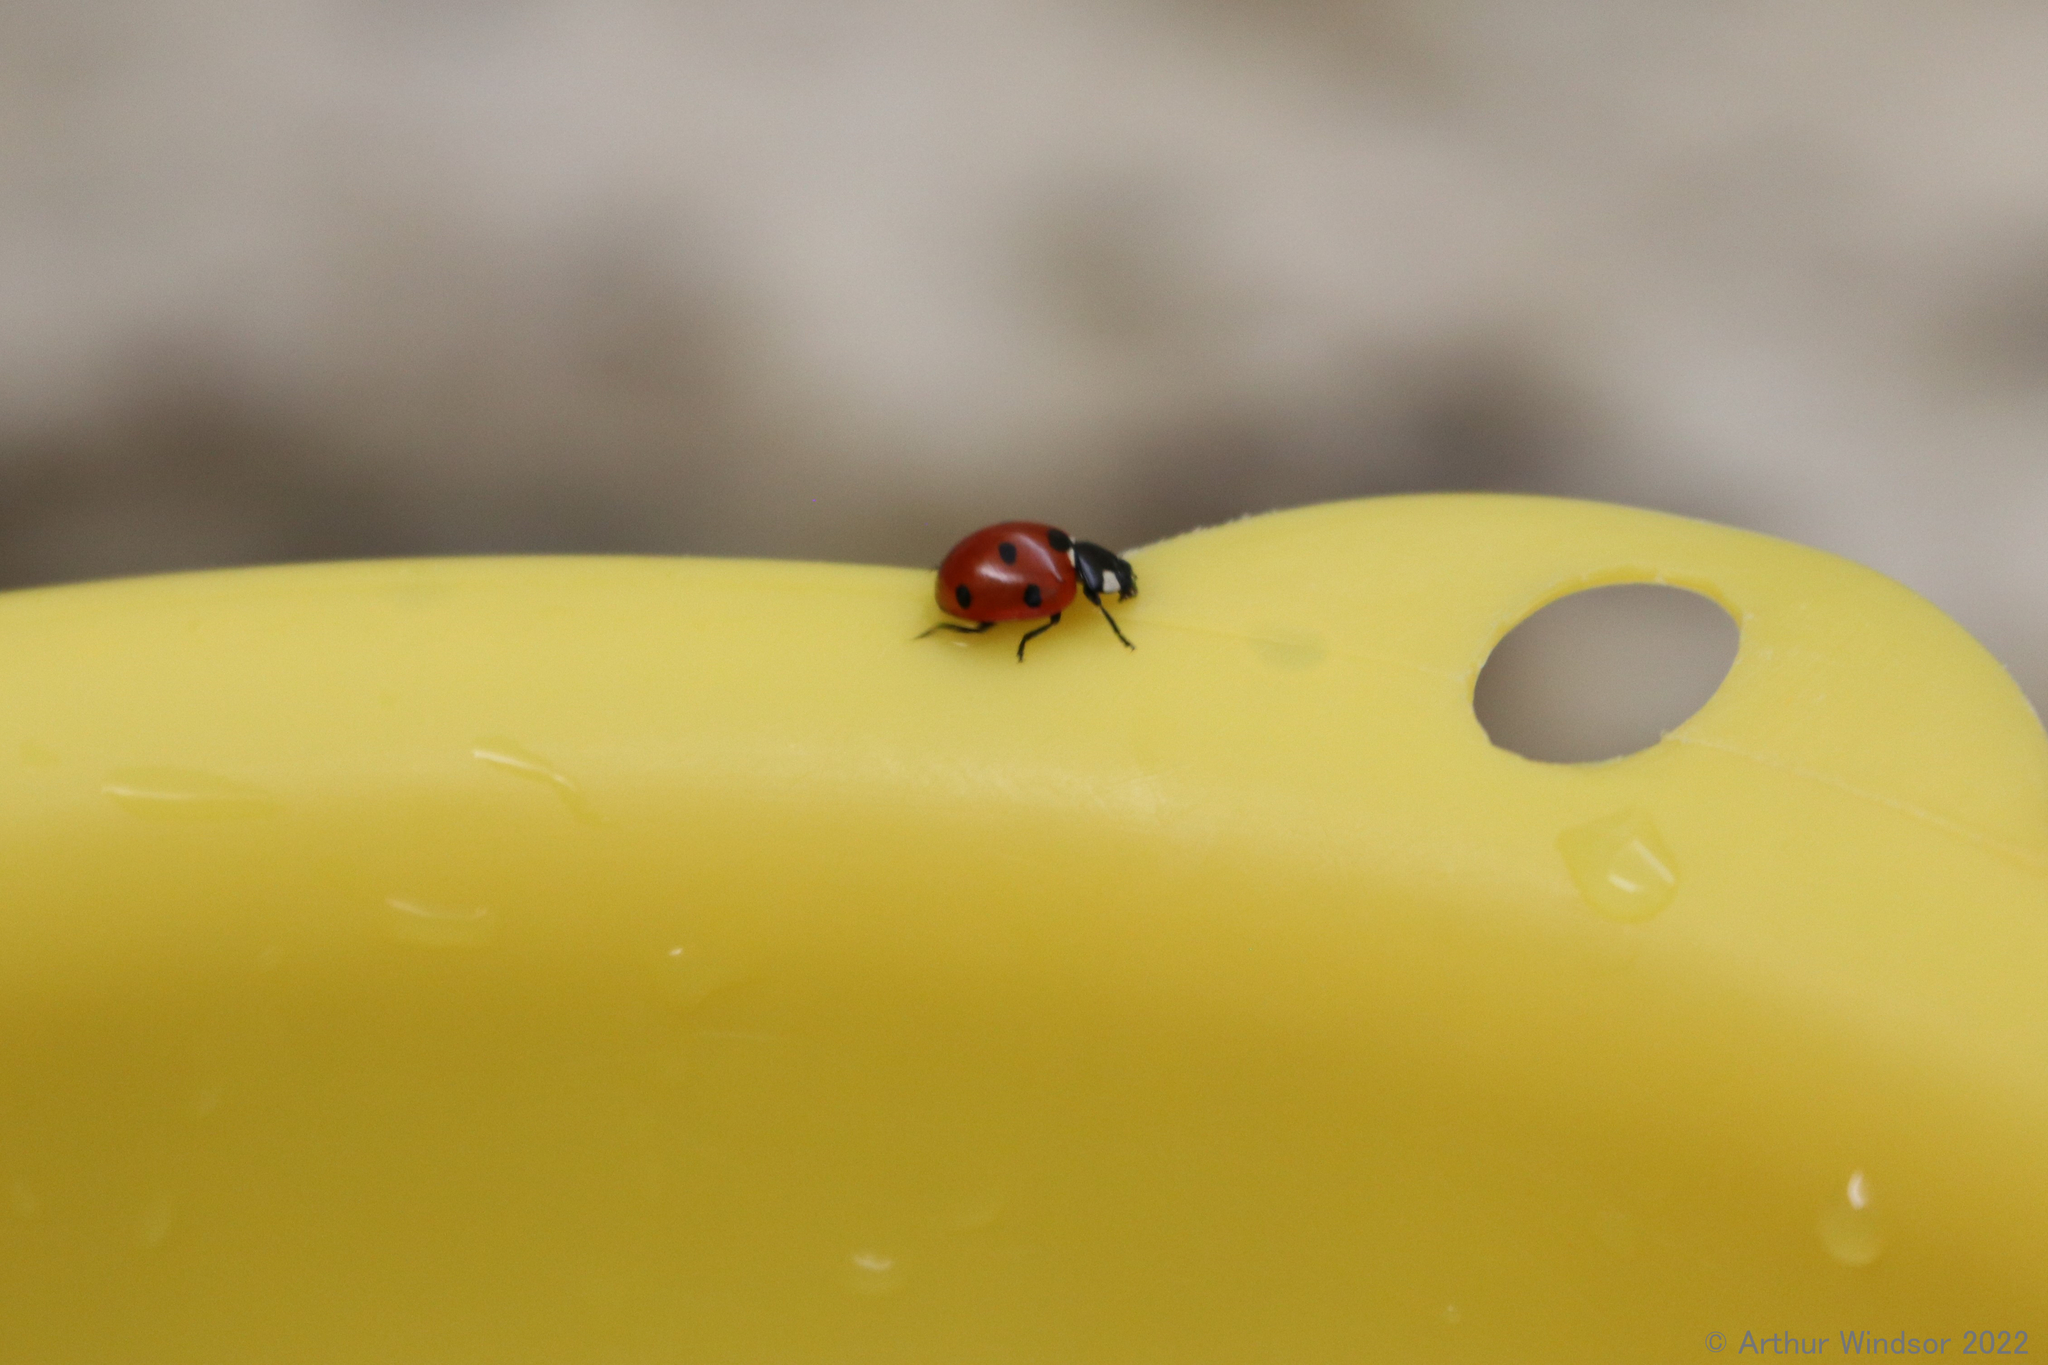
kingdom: Animalia
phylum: Arthropoda
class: Insecta
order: Coleoptera
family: Coccinellidae
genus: Coccinella
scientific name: Coccinella septempunctata
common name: Sevenspotted lady beetle
